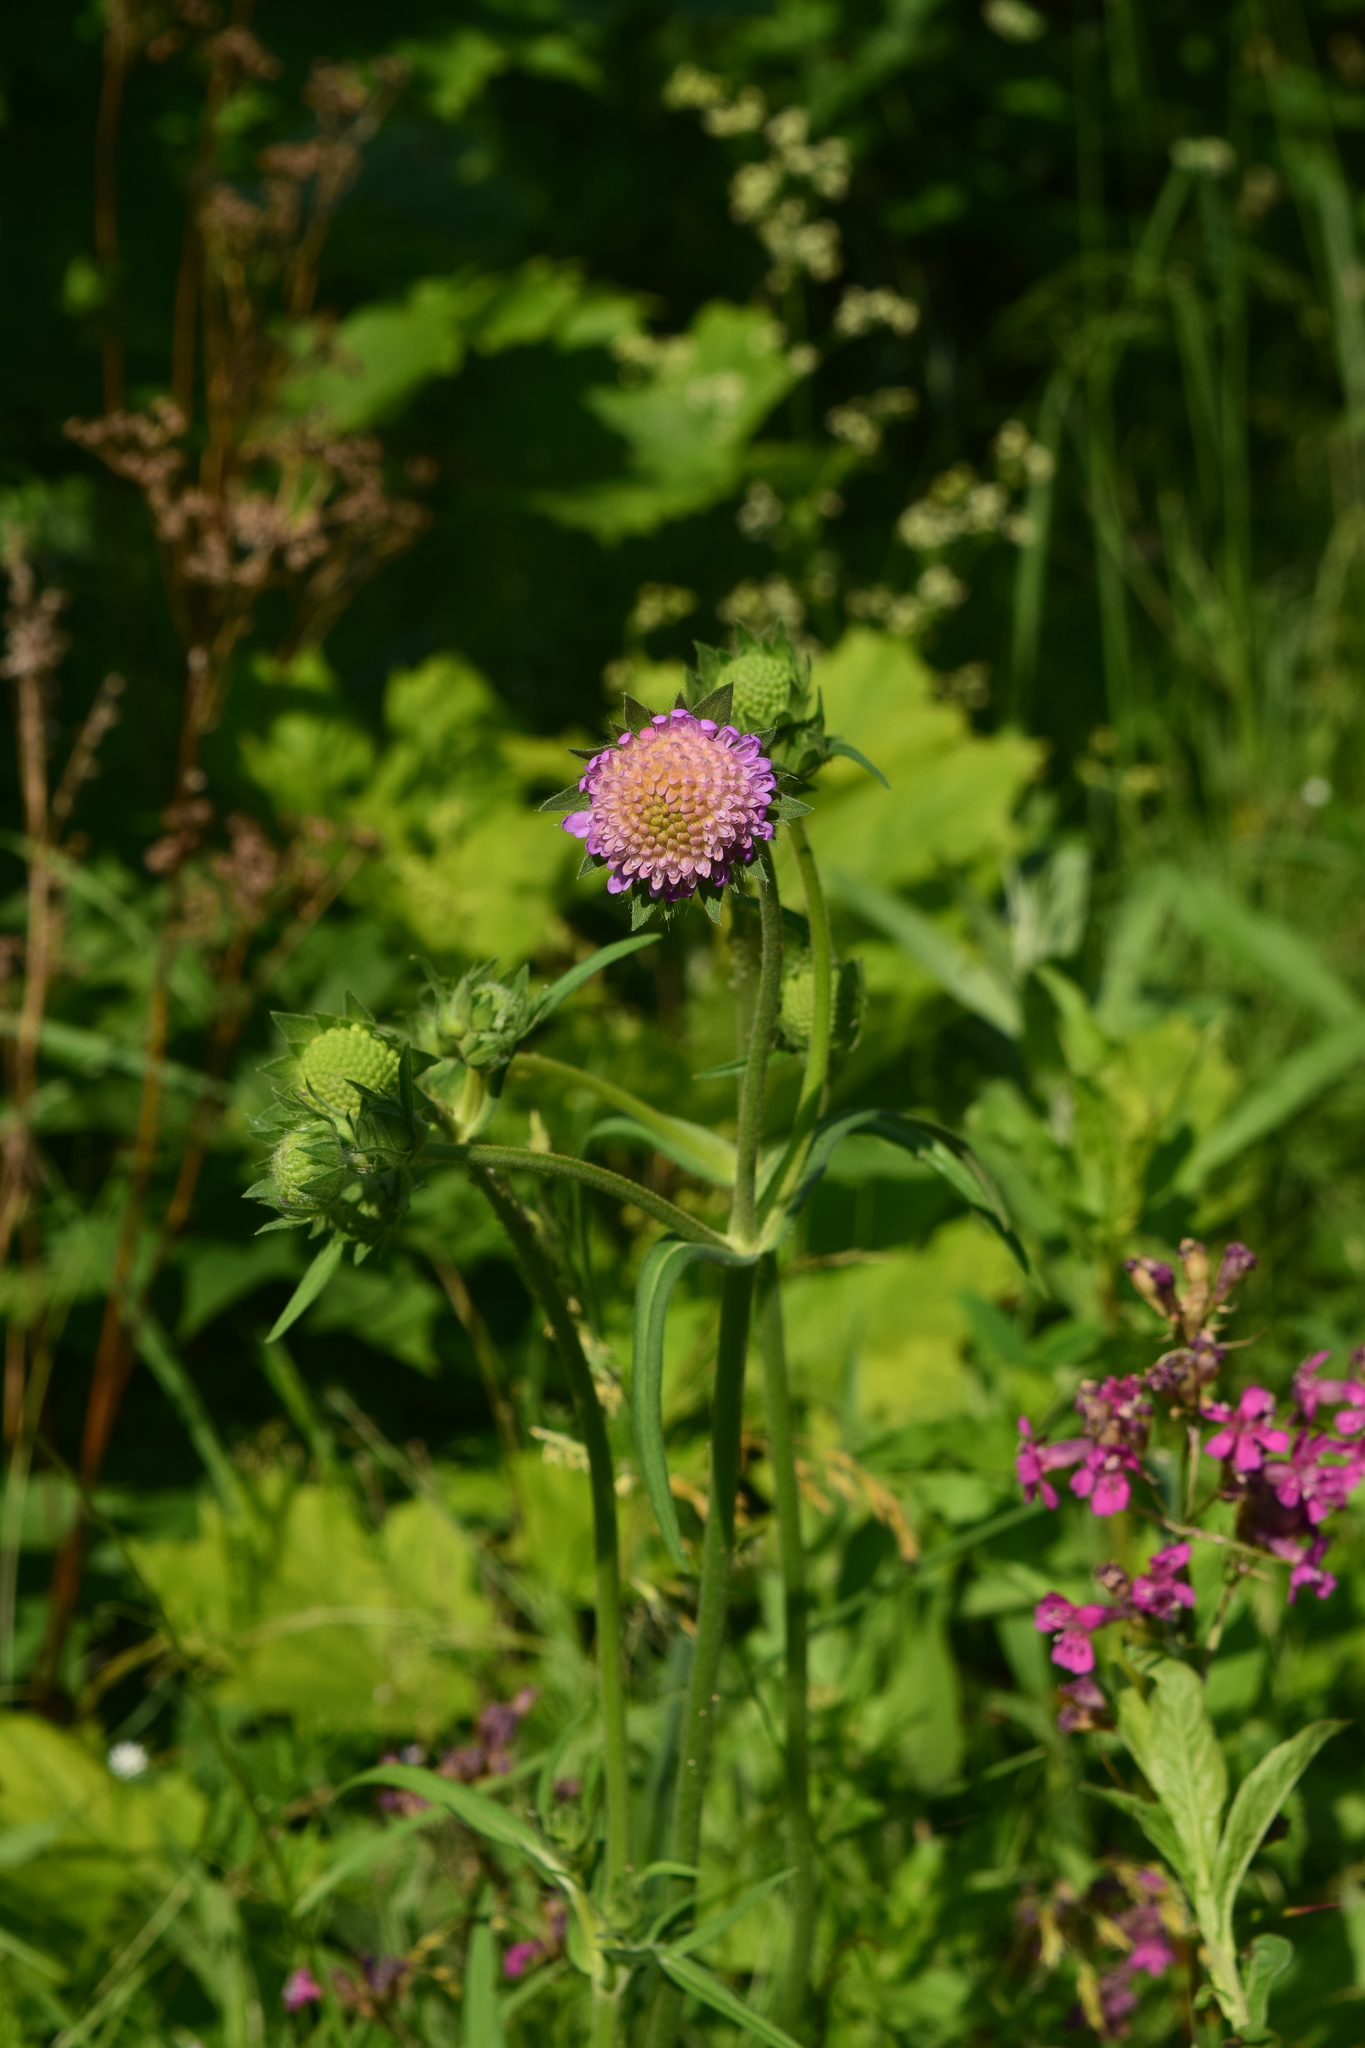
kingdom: Plantae
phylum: Tracheophyta
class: Magnoliopsida
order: Dipsacales
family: Caprifoliaceae
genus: Knautia
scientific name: Knautia arvensis
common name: Field scabiosa
